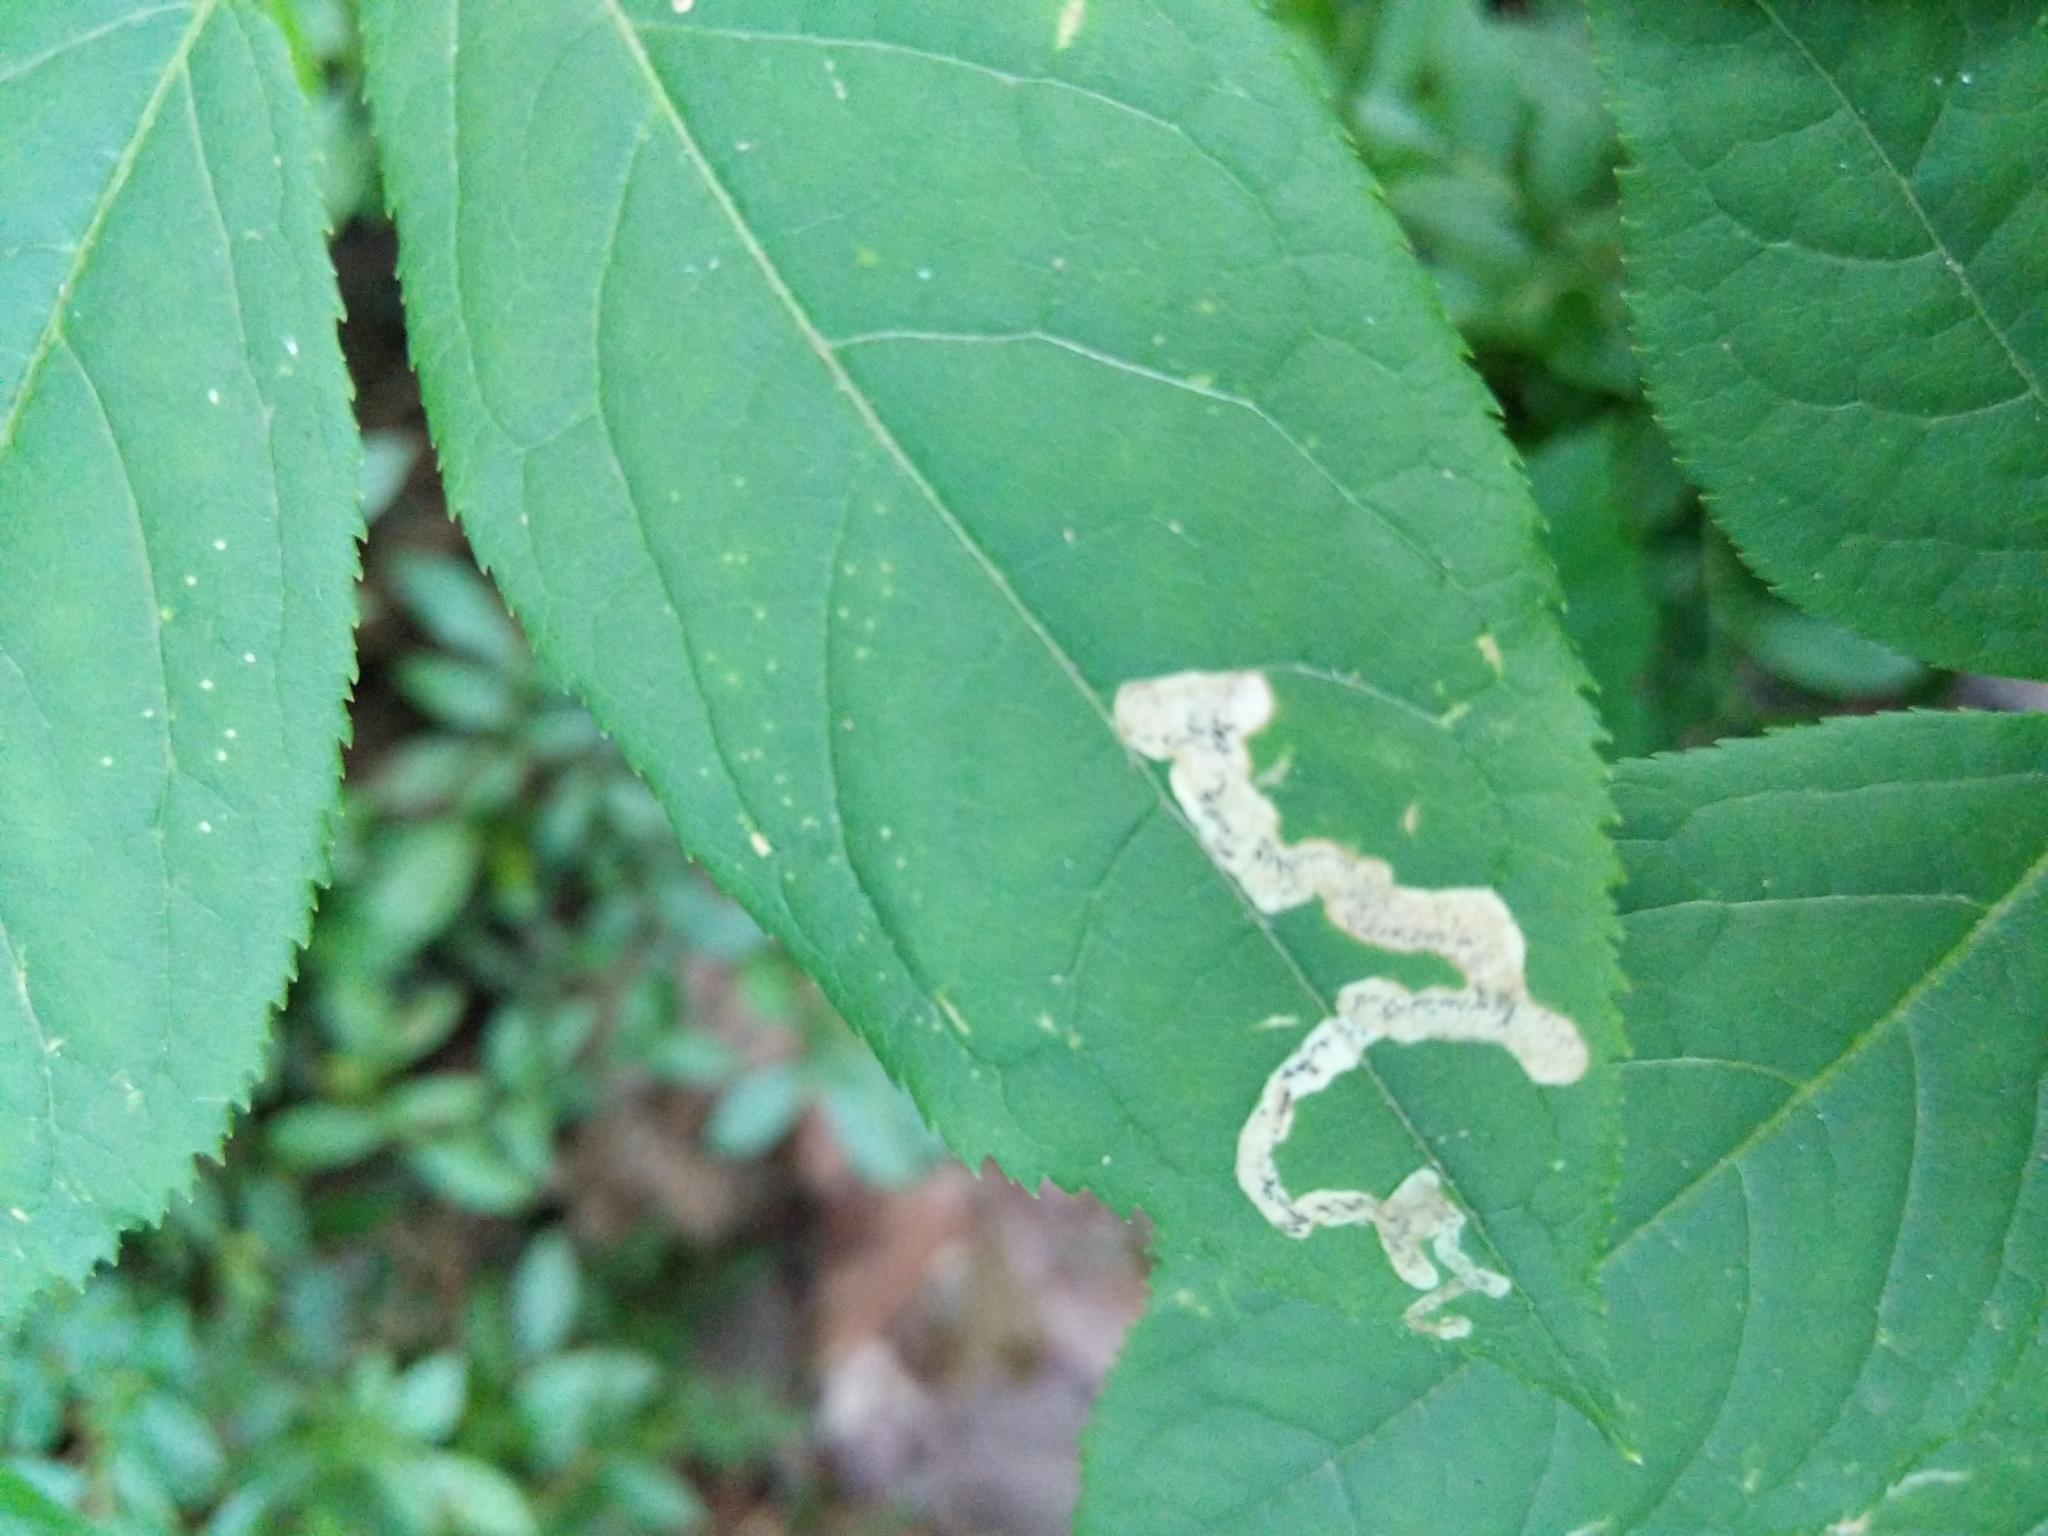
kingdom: Animalia
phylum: Arthropoda
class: Insecta
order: Diptera
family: Agromyzidae
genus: Phytomyza
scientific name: Phytomyza aralivora
